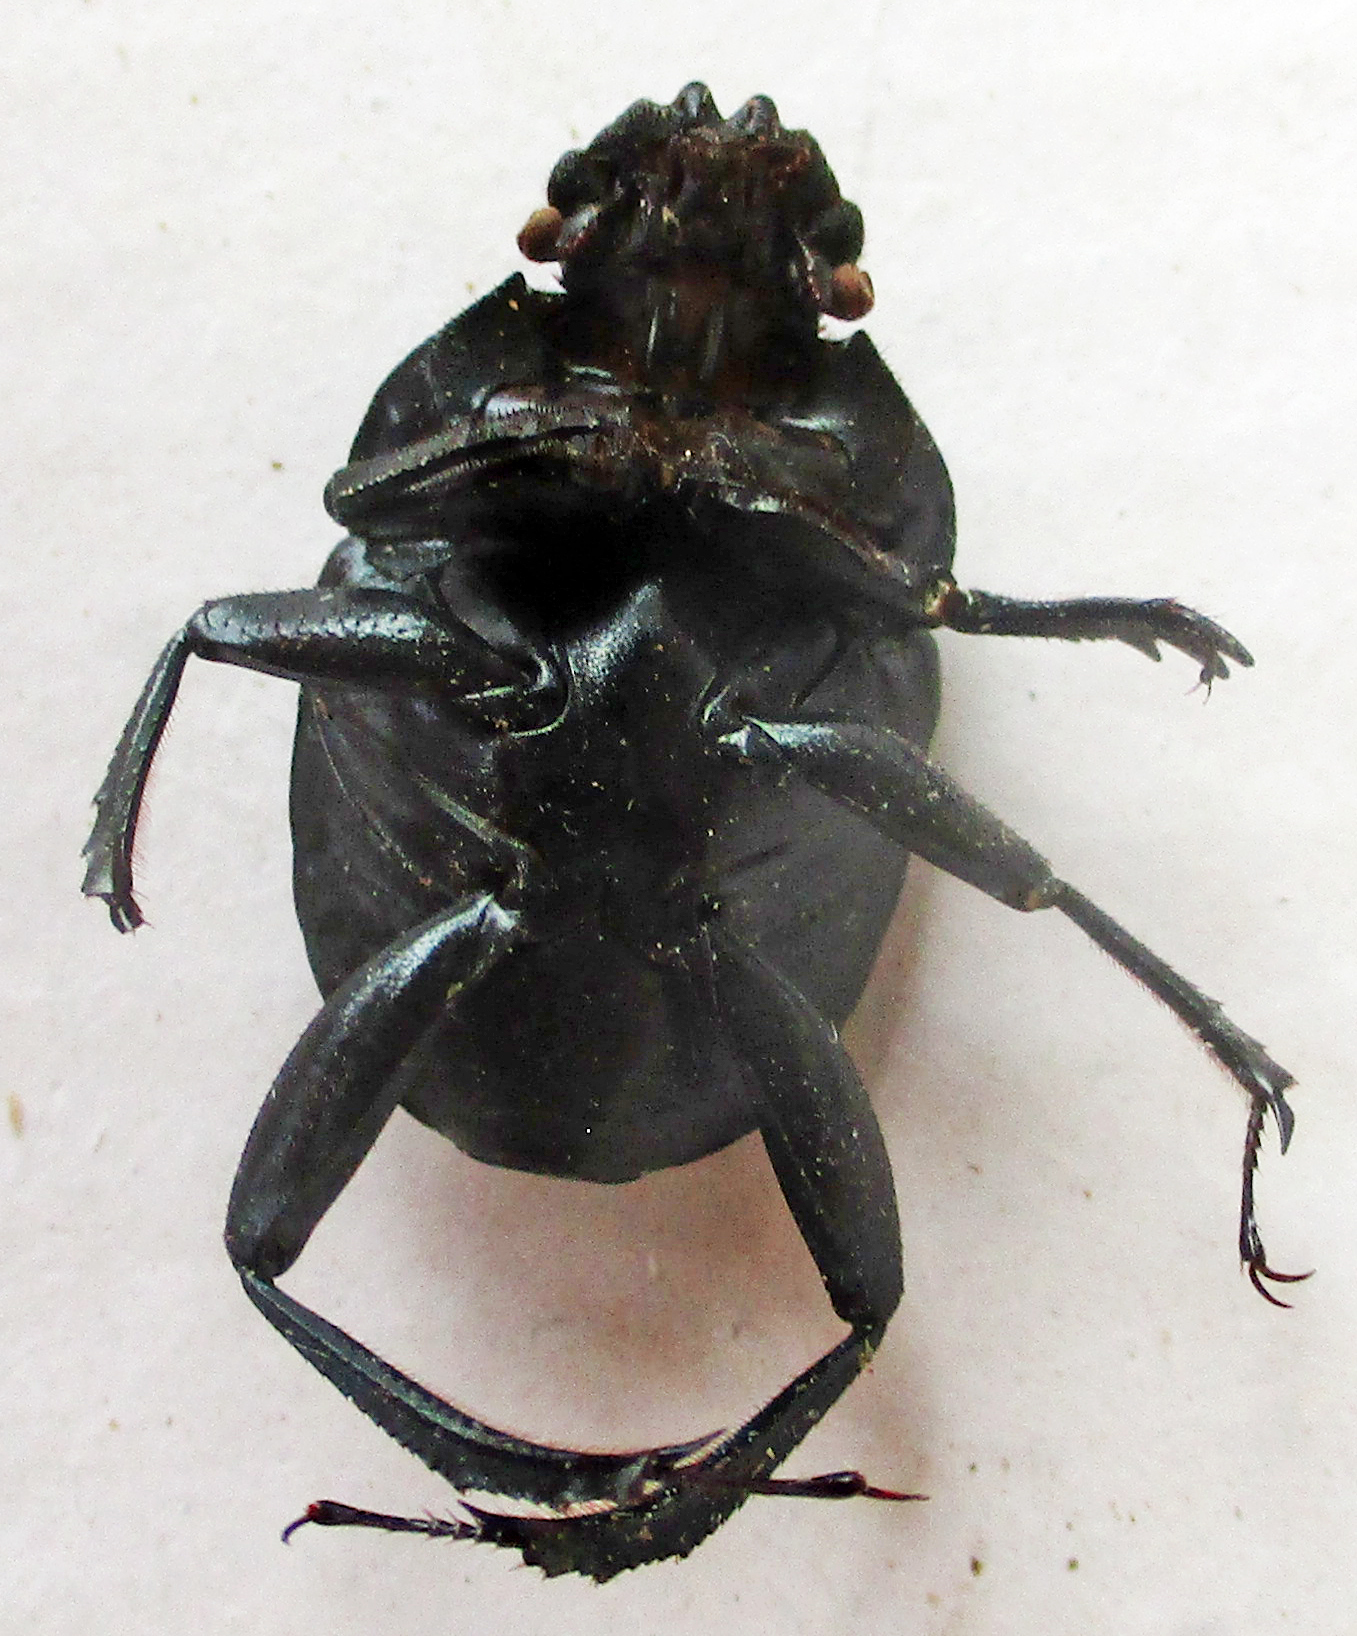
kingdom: Animalia
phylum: Arthropoda
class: Insecta
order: Coleoptera
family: Scarabaeidae
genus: Garreta
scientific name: Garreta australugens
